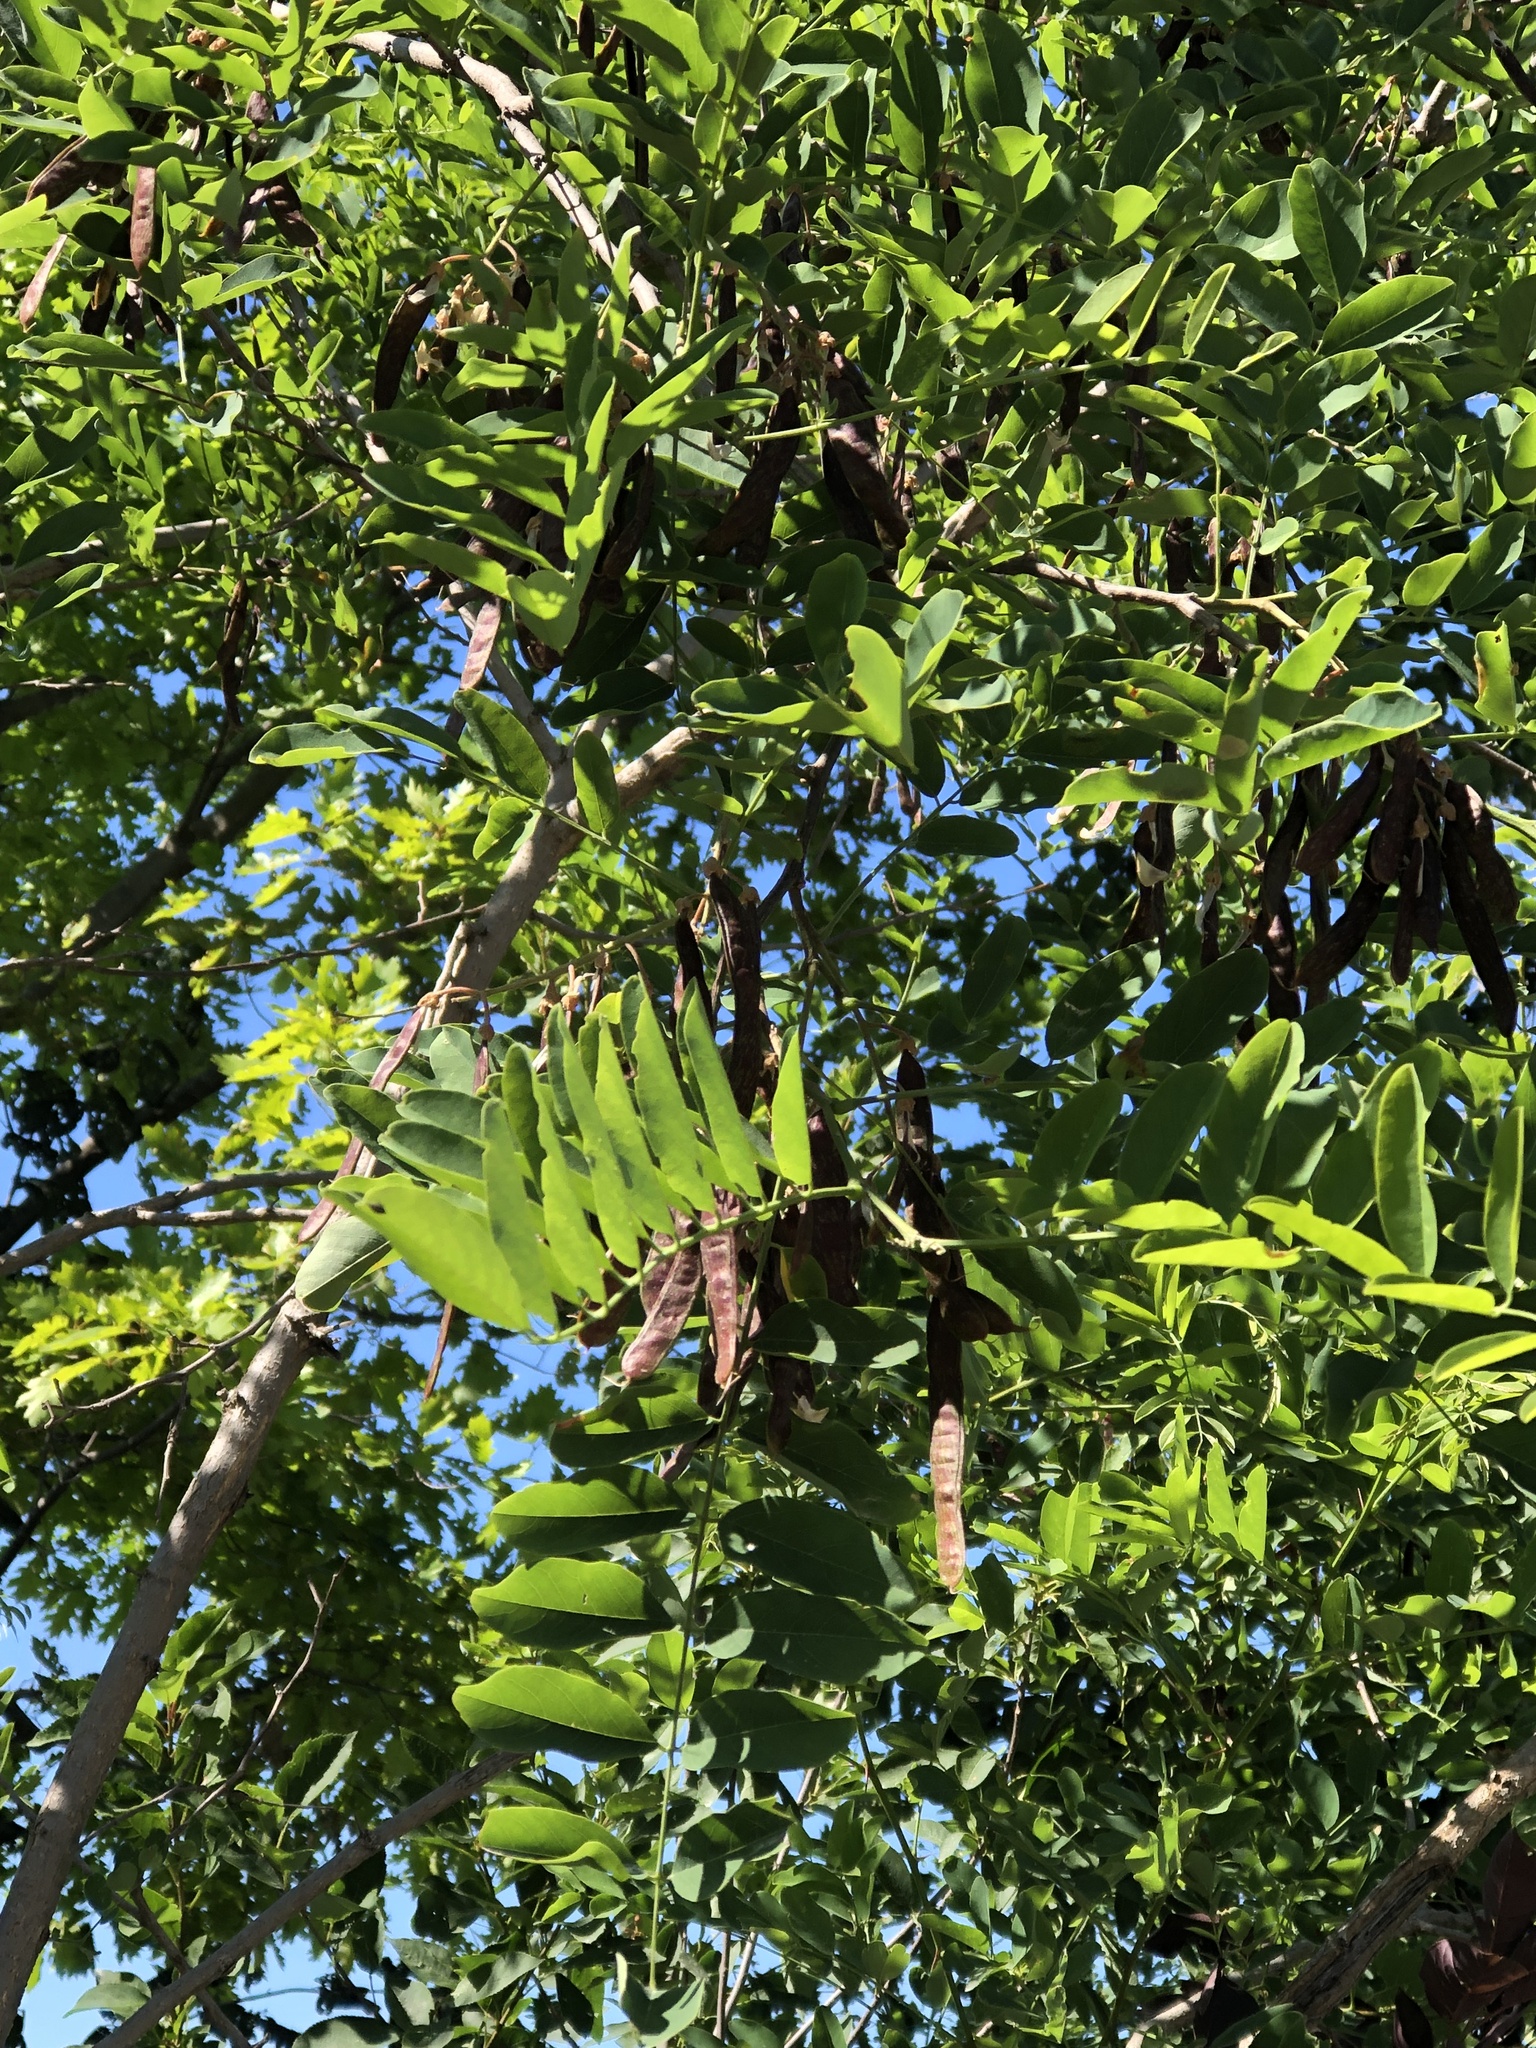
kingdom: Plantae
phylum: Tracheophyta
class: Magnoliopsida
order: Fabales
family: Fabaceae
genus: Robinia
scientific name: Robinia pseudoacacia
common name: Black locust
